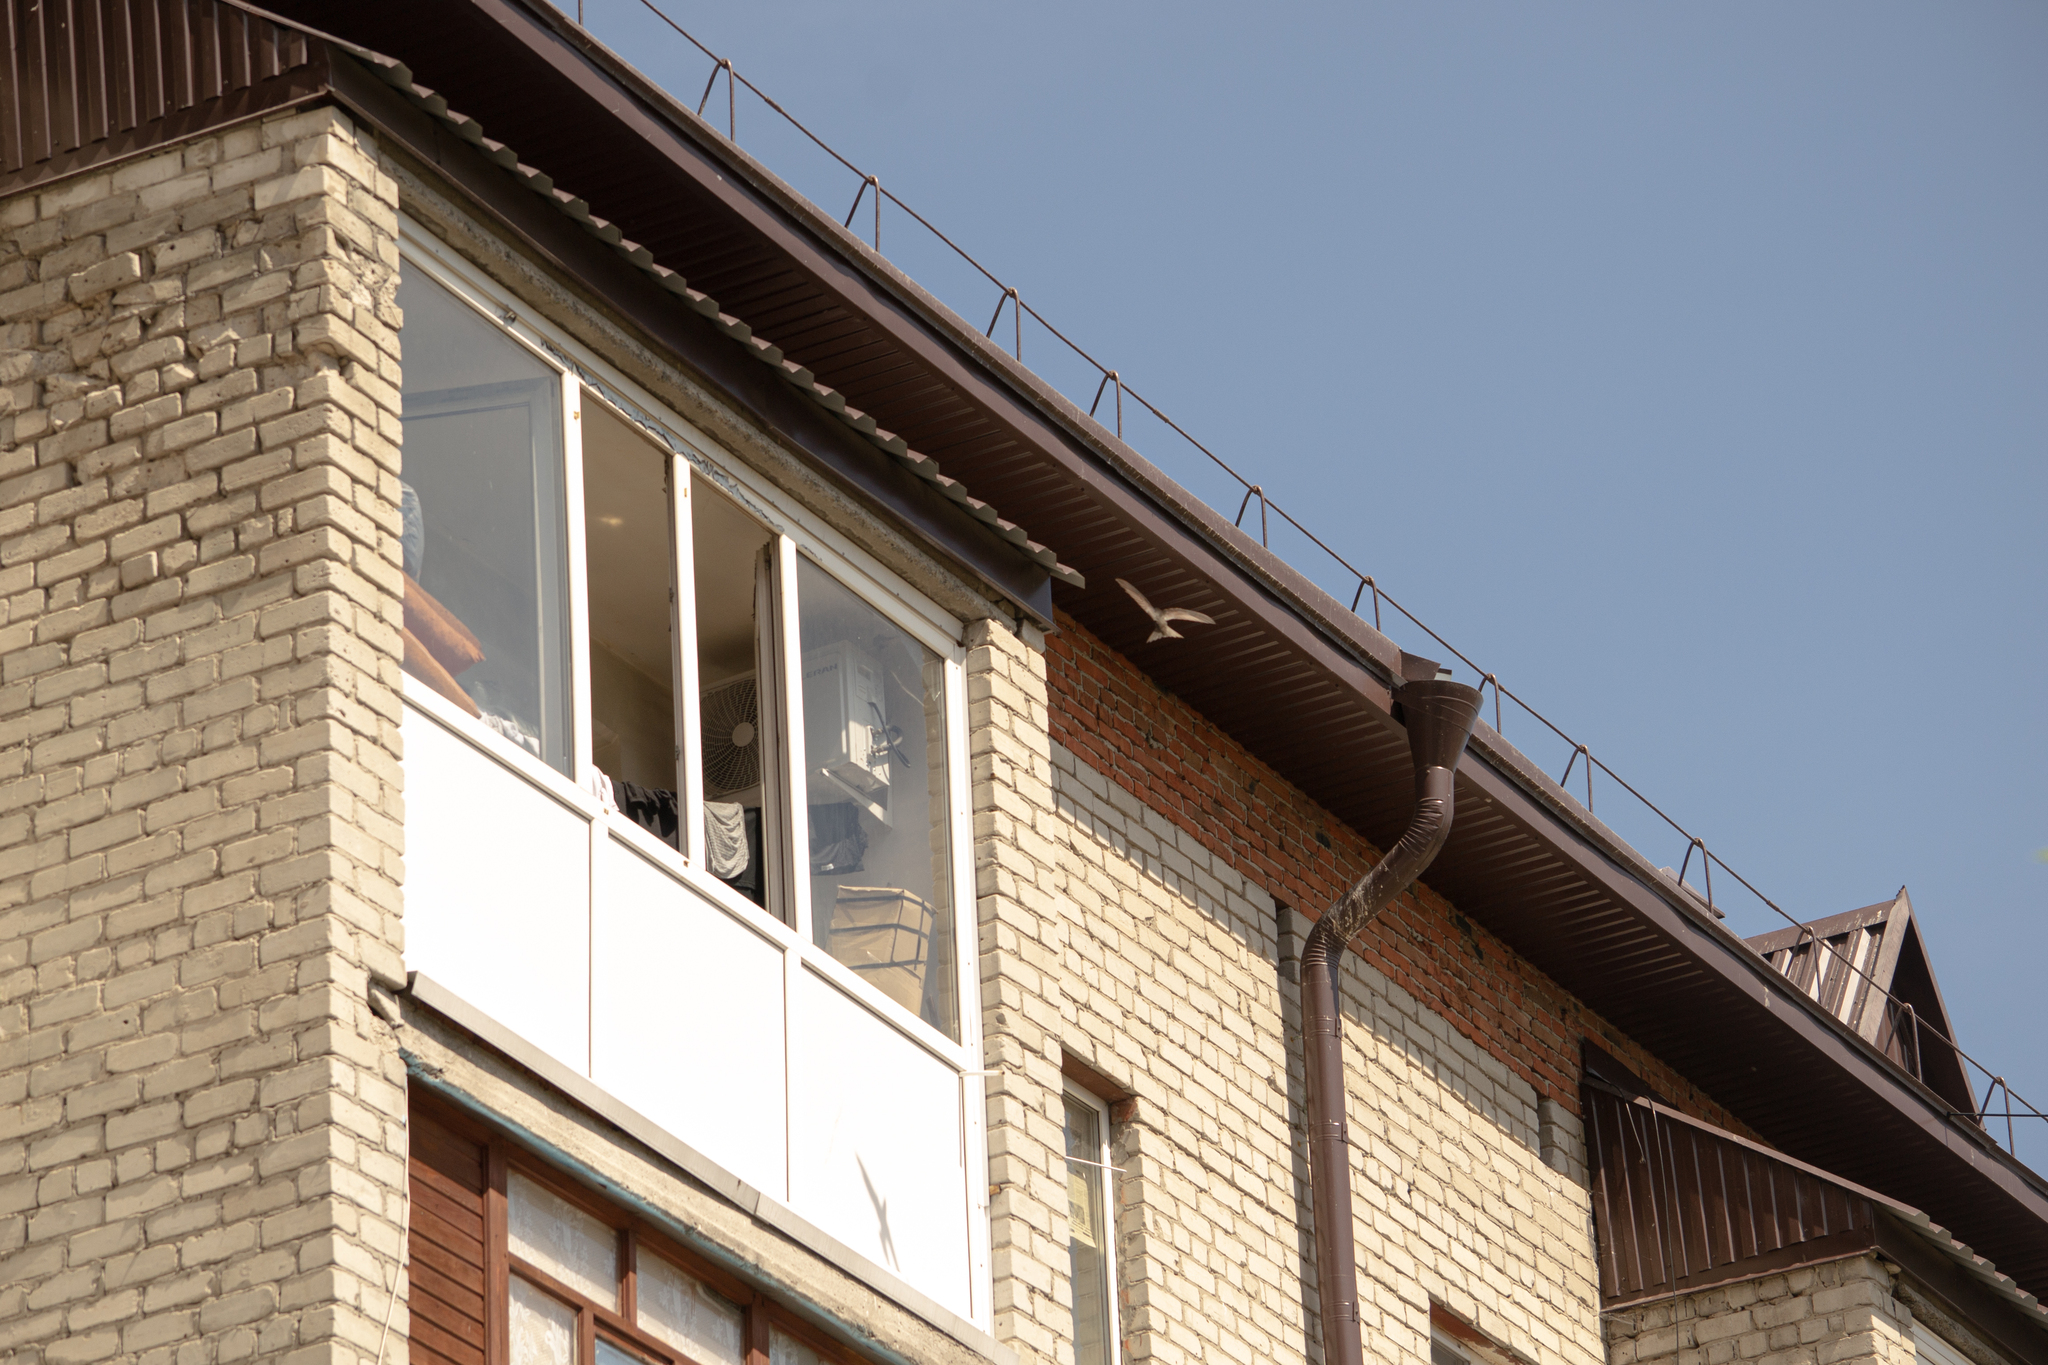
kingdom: Animalia
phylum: Chordata
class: Aves
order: Apodiformes
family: Apodidae
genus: Apus
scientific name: Apus apus
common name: Common swift
